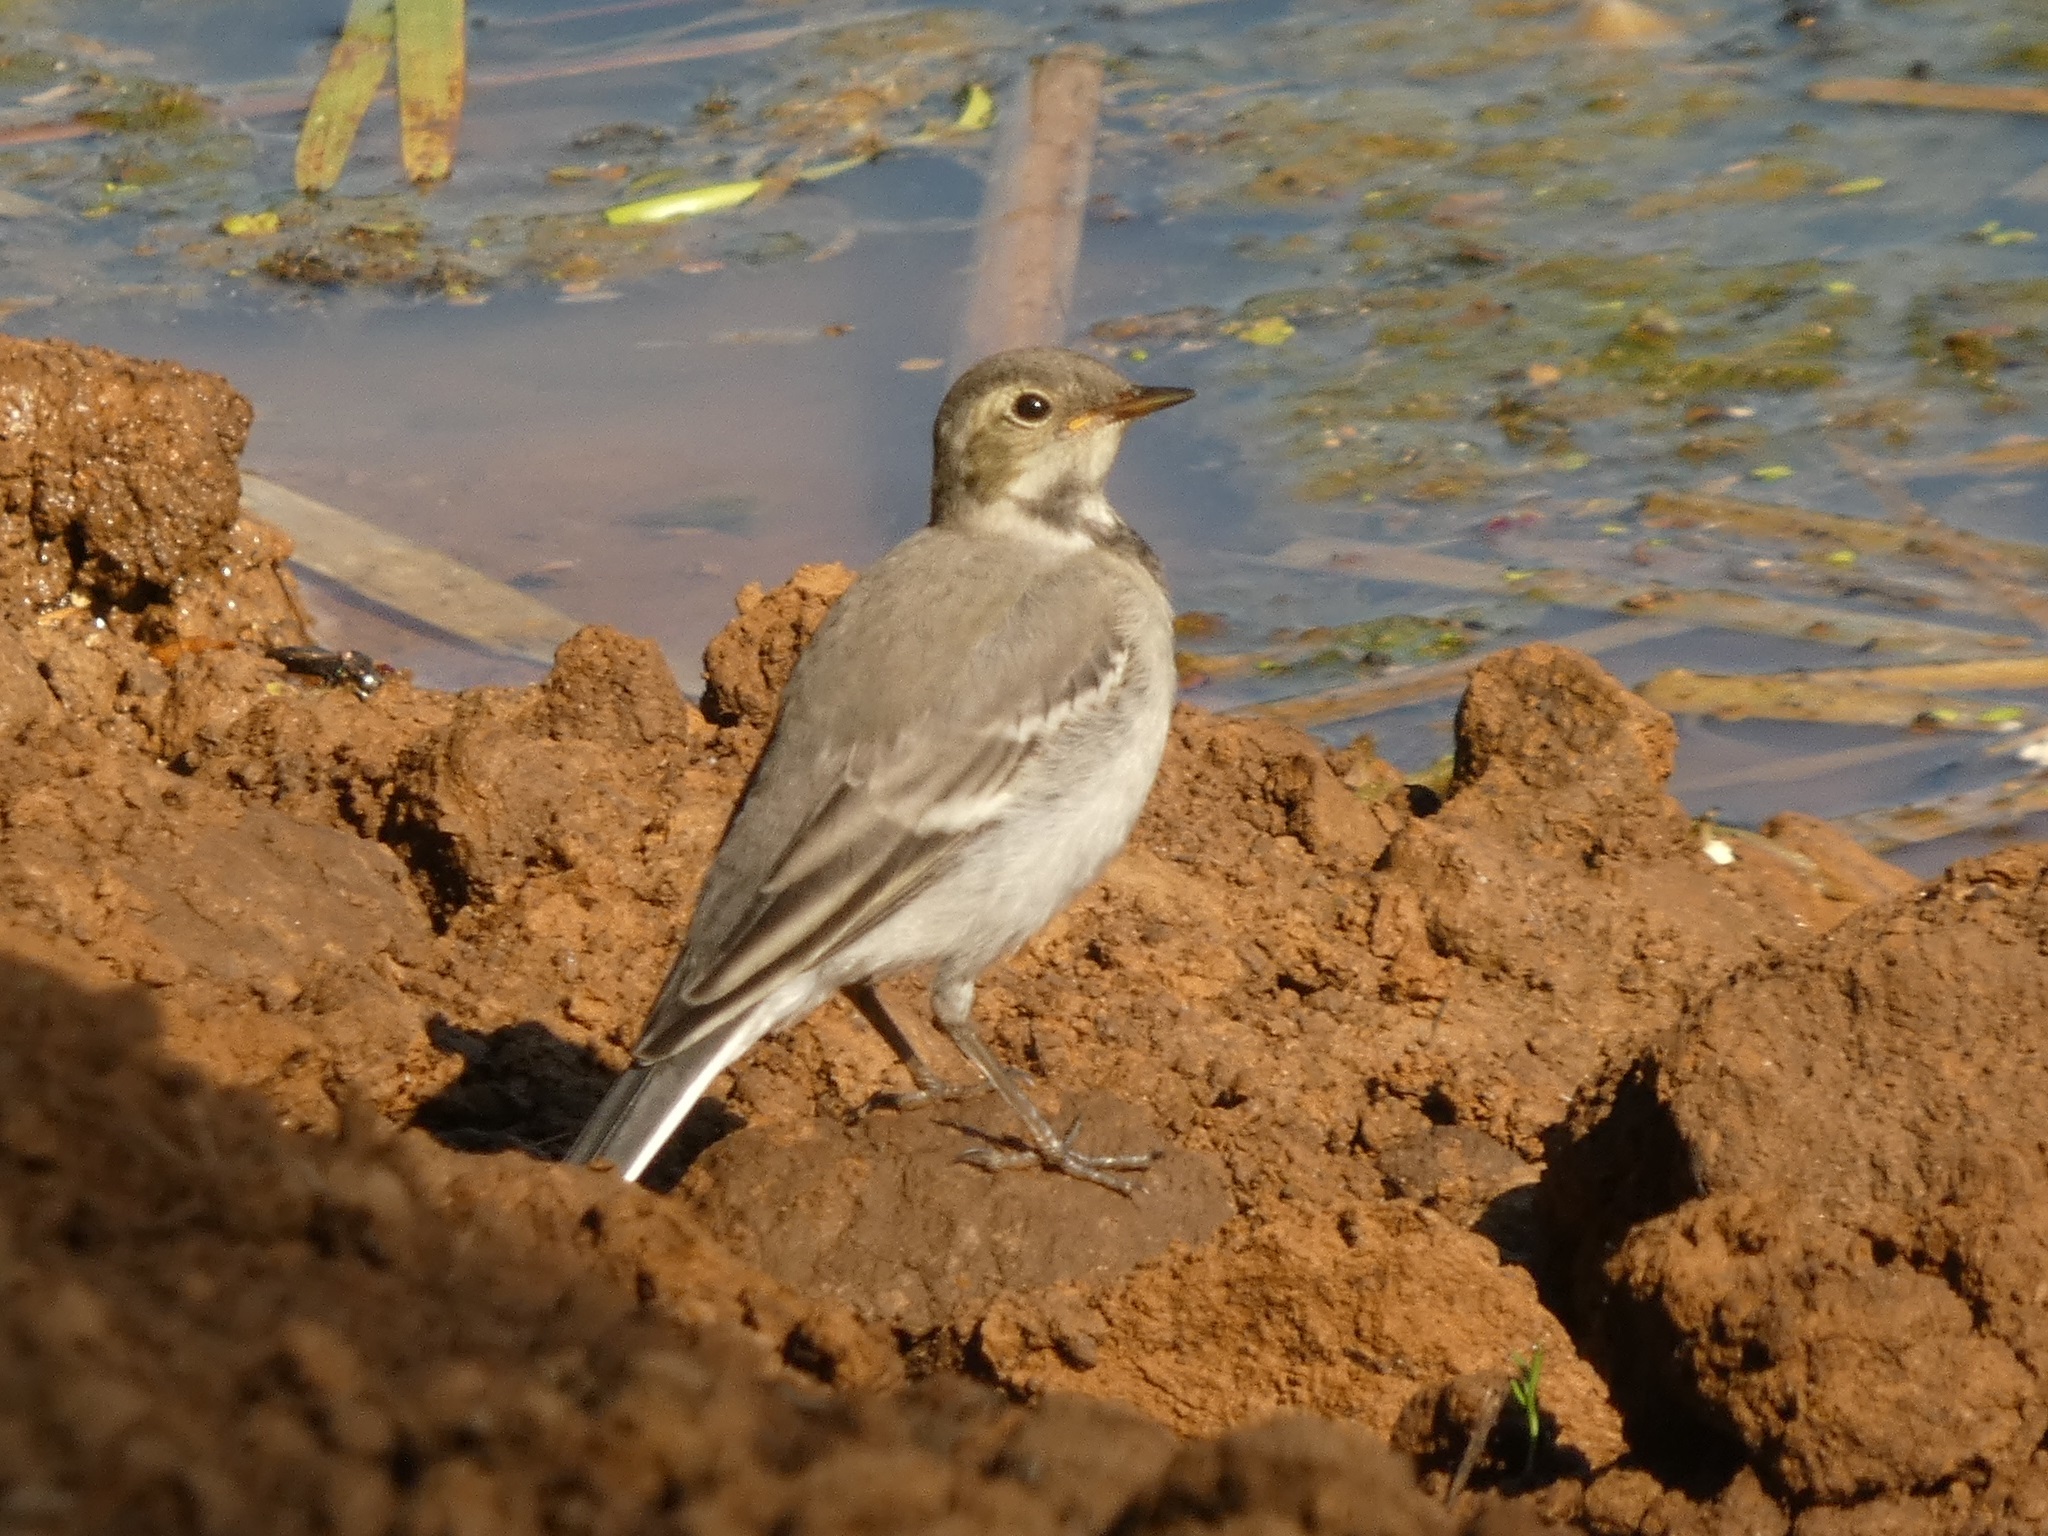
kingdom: Animalia
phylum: Chordata
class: Aves
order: Passeriformes
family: Motacillidae
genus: Motacilla
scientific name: Motacilla alba
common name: White wagtail
